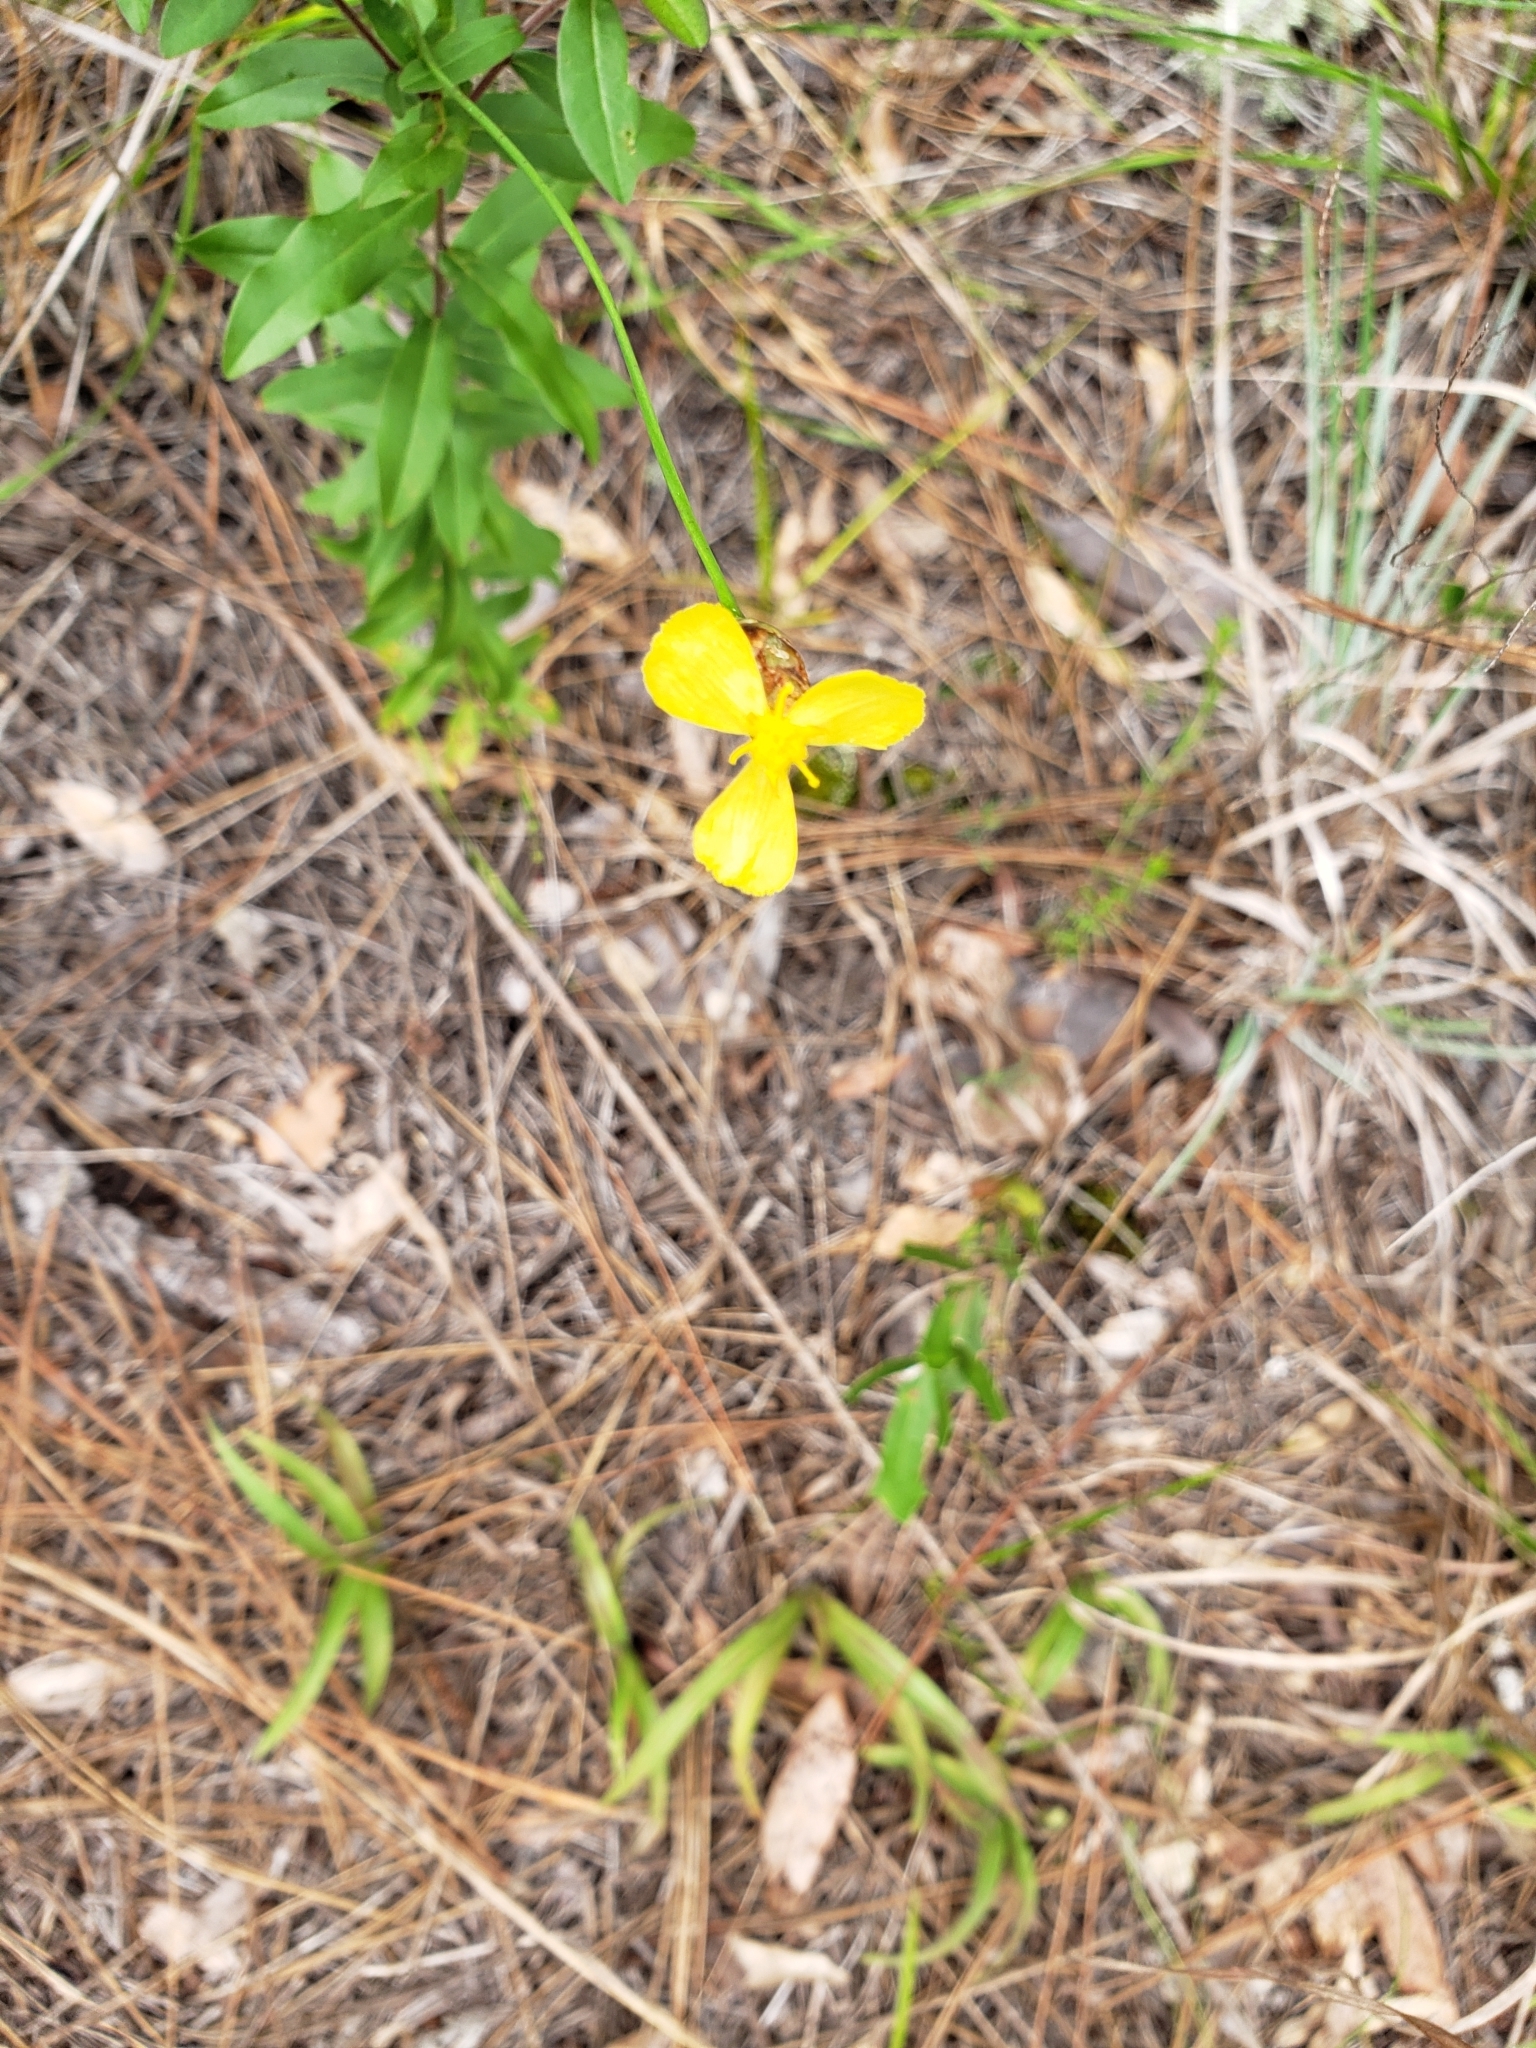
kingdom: Plantae
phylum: Tracheophyta
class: Liliopsida
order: Poales
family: Xyridaceae
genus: Xyris
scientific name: Xyris caroliniana
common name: Carolina yellow-eyed-grass
